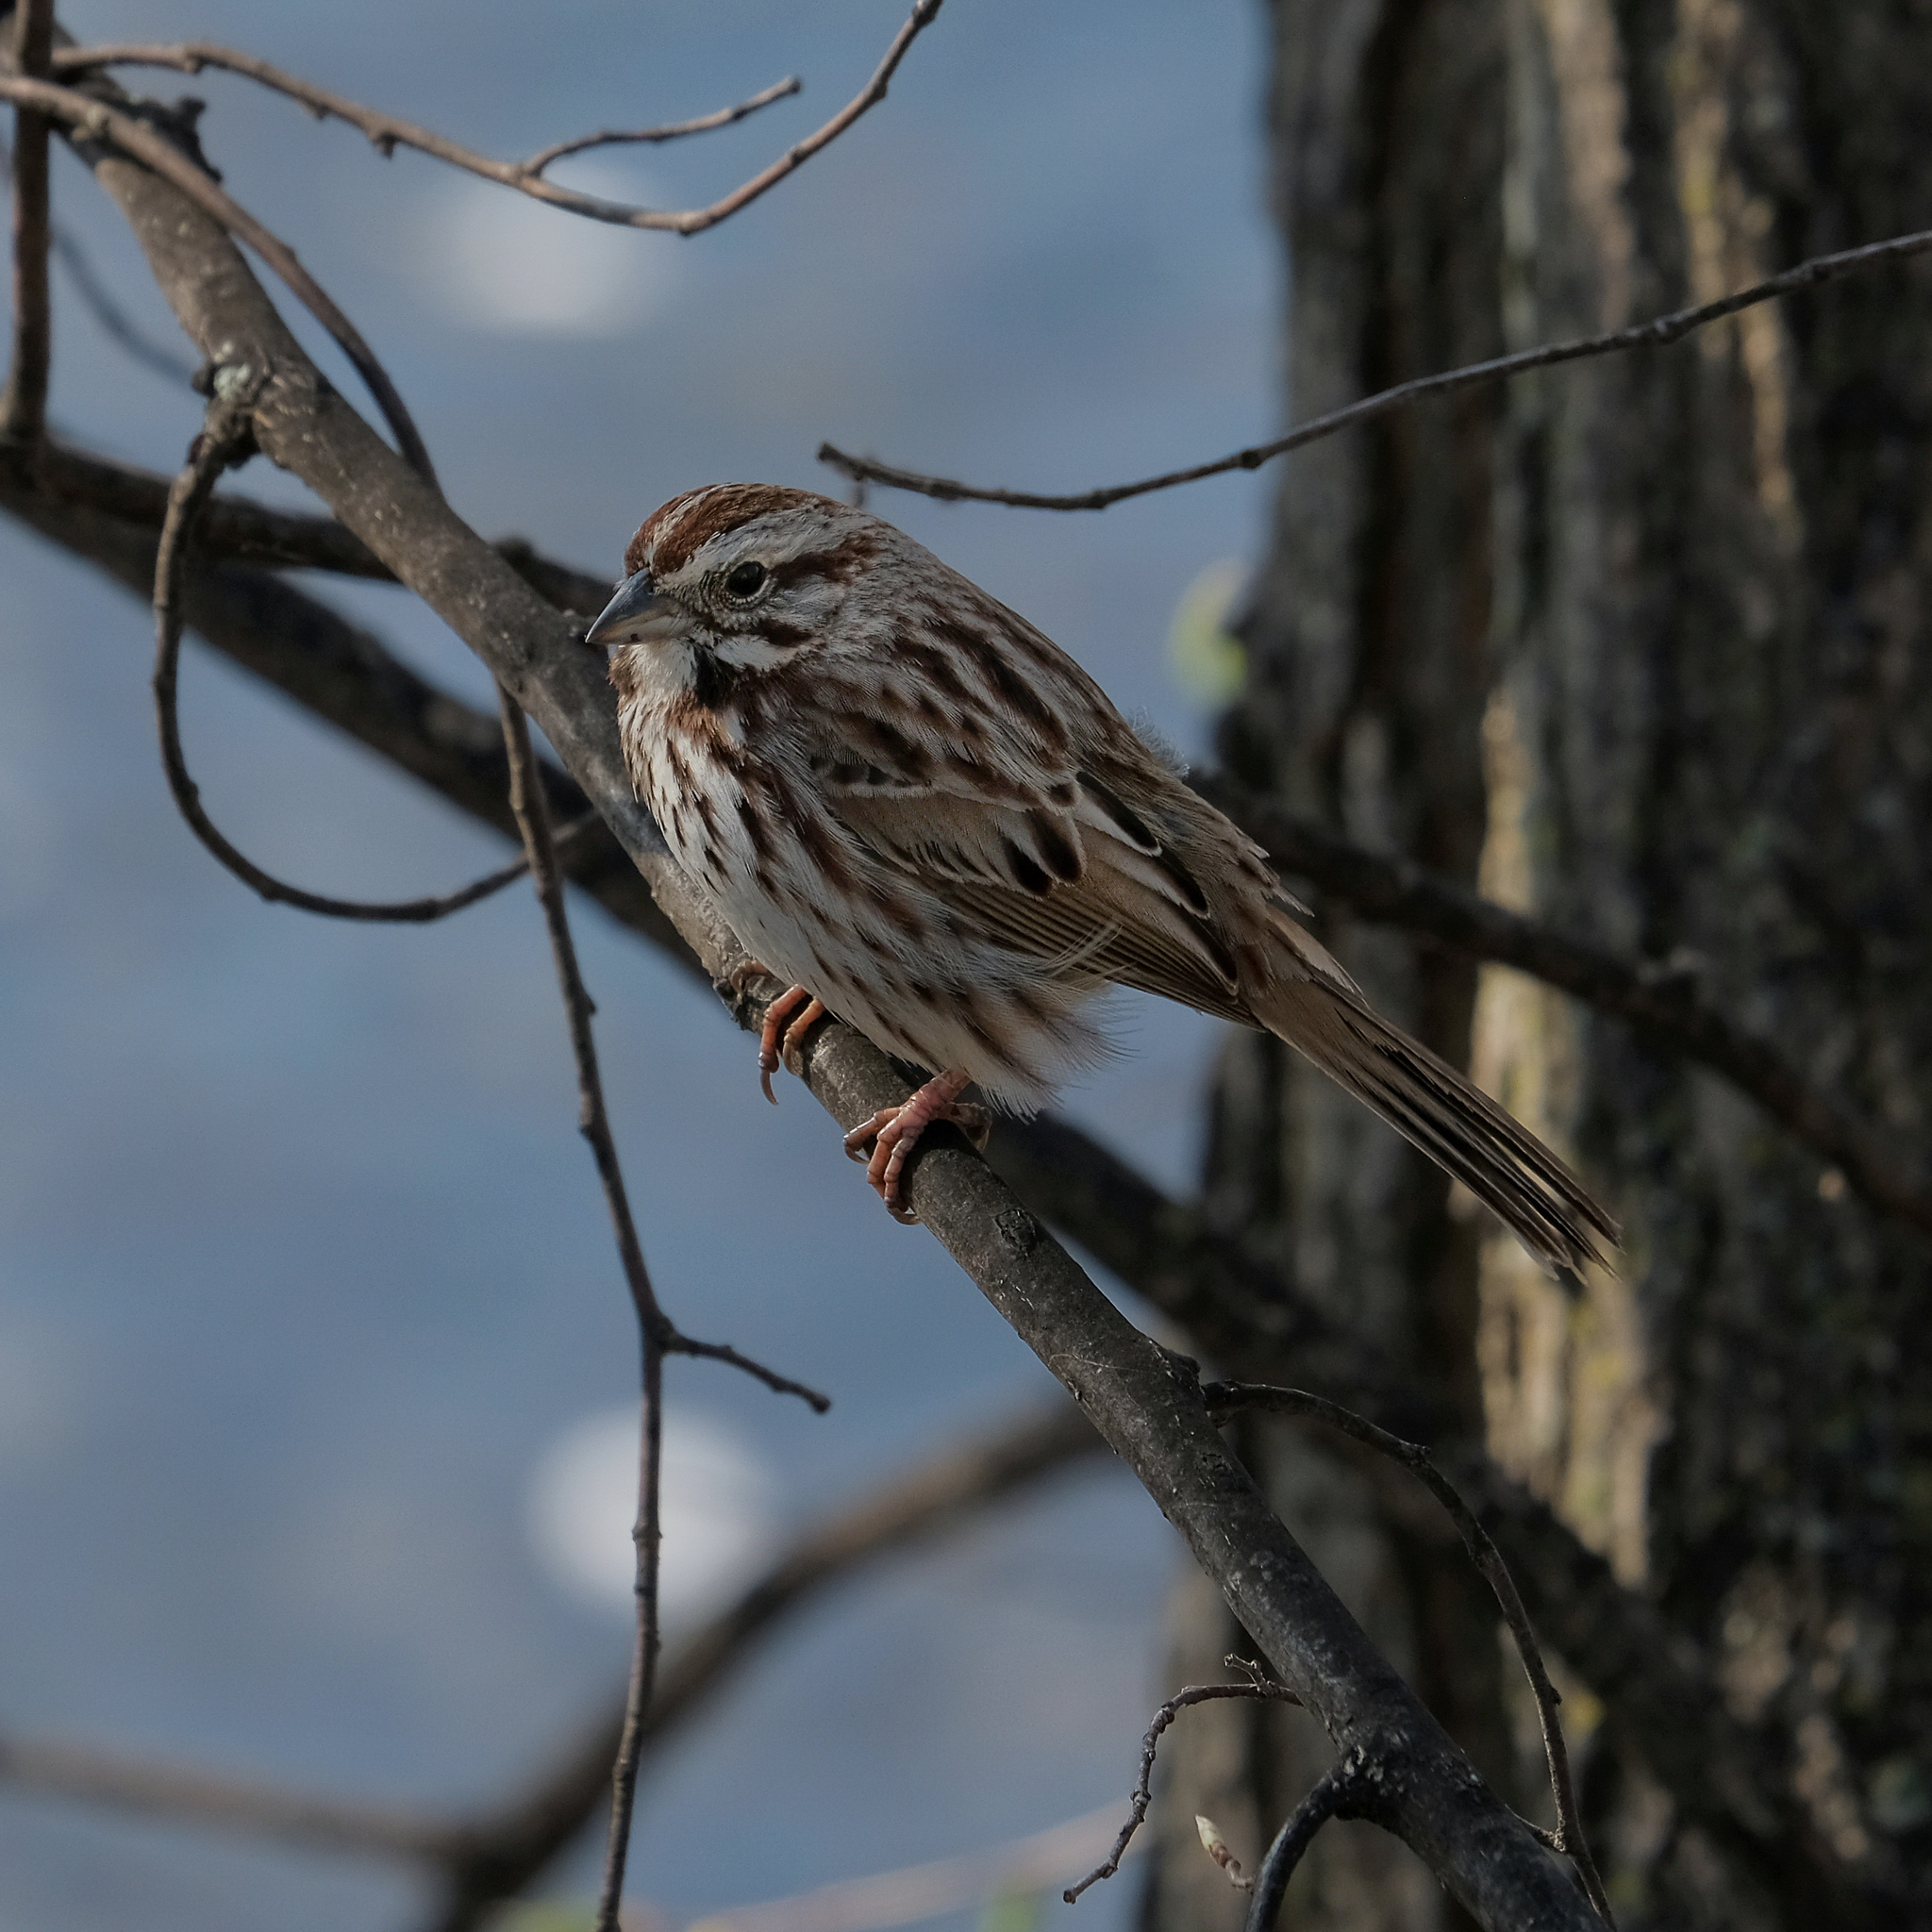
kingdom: Animalia
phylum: Chordata
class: Aves
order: Passeriformes
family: Passerellidae
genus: Melospiza
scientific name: Melospiza melodia
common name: Song sparrow
